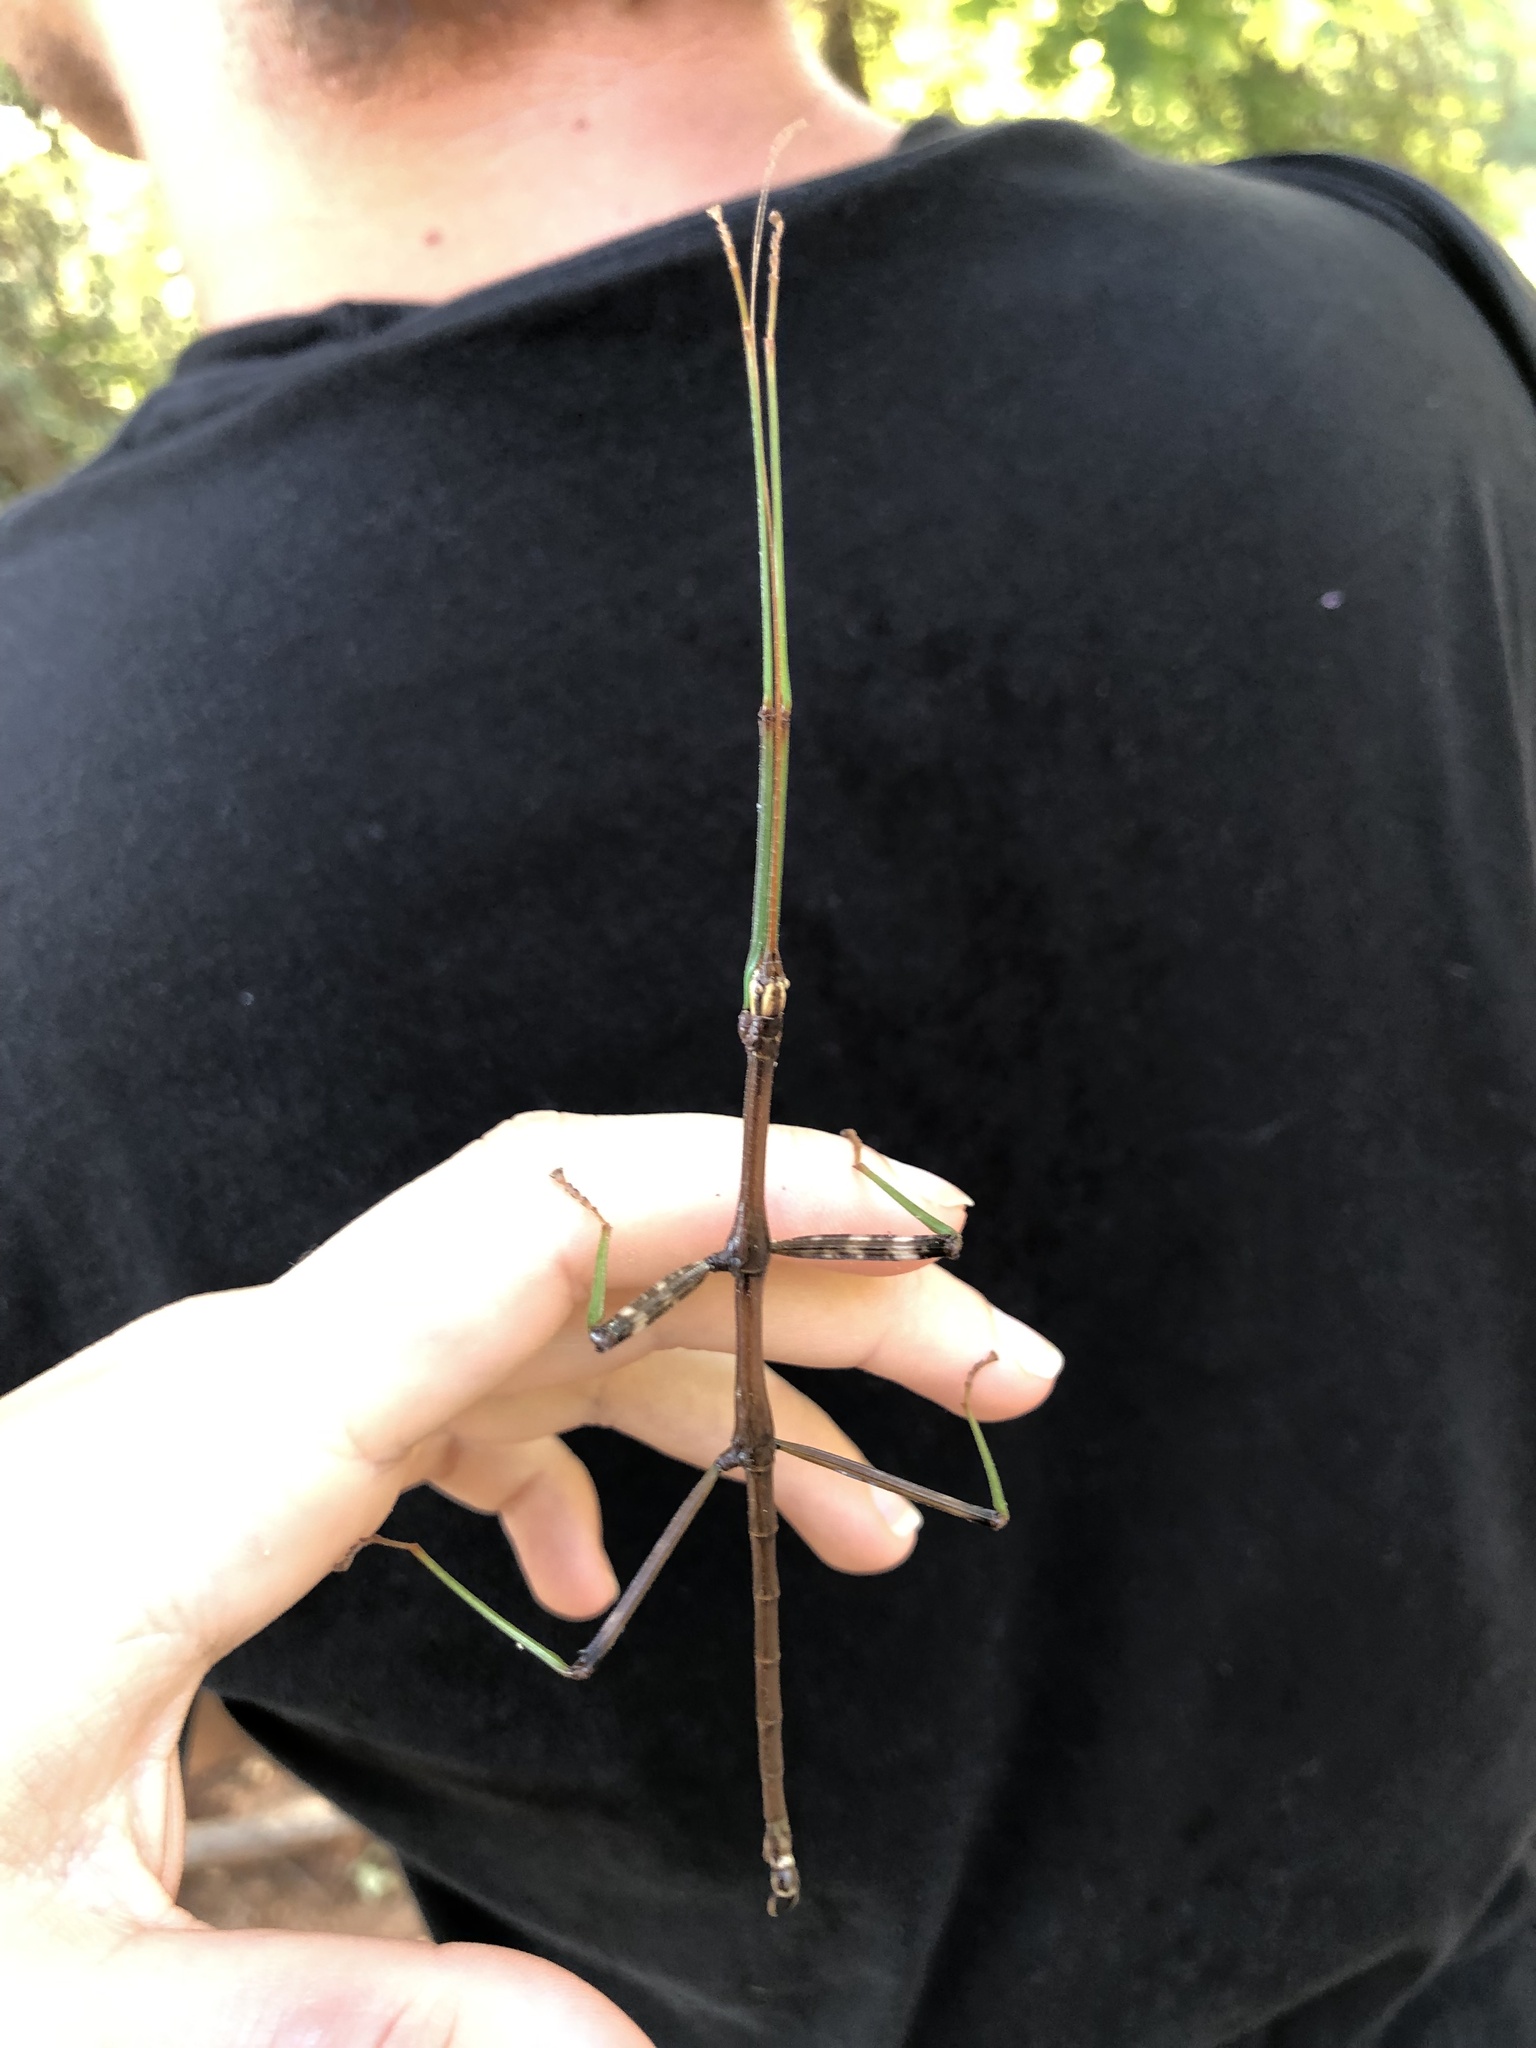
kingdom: Animalia
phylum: Arthropoda
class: Insecta
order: Phasmida
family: Diapheromeridae
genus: Diapheromera
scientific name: Diapheromera femorata
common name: Common american walkingstick
